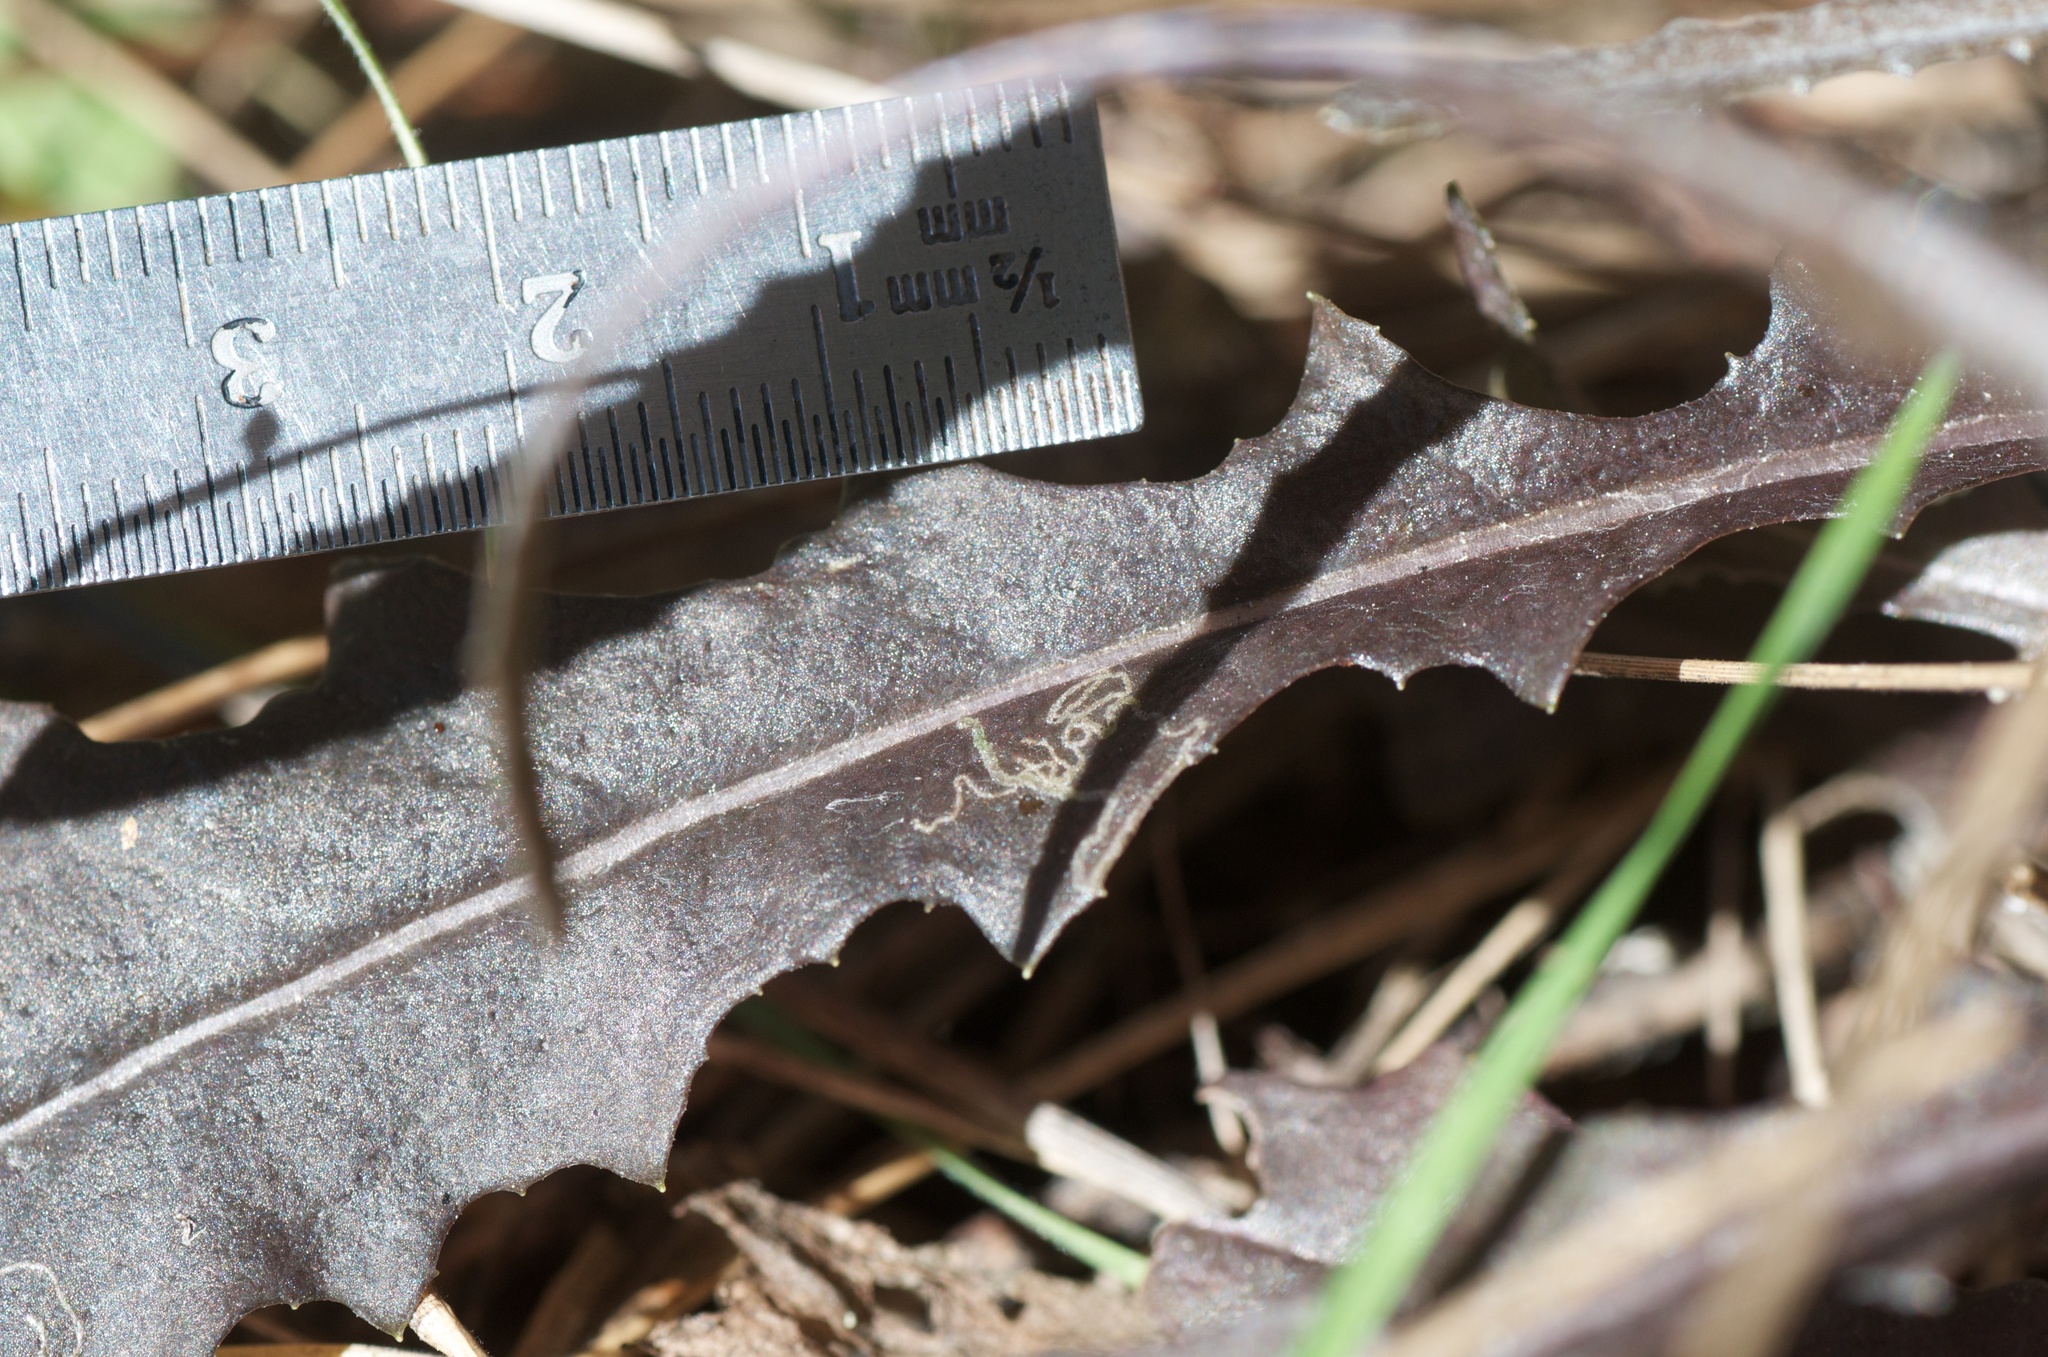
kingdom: Animalia
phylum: Arthropoda
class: Insecta
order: Lepidoptera
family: Nepticulidae
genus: Stigmella
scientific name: Stigmella ogygia
